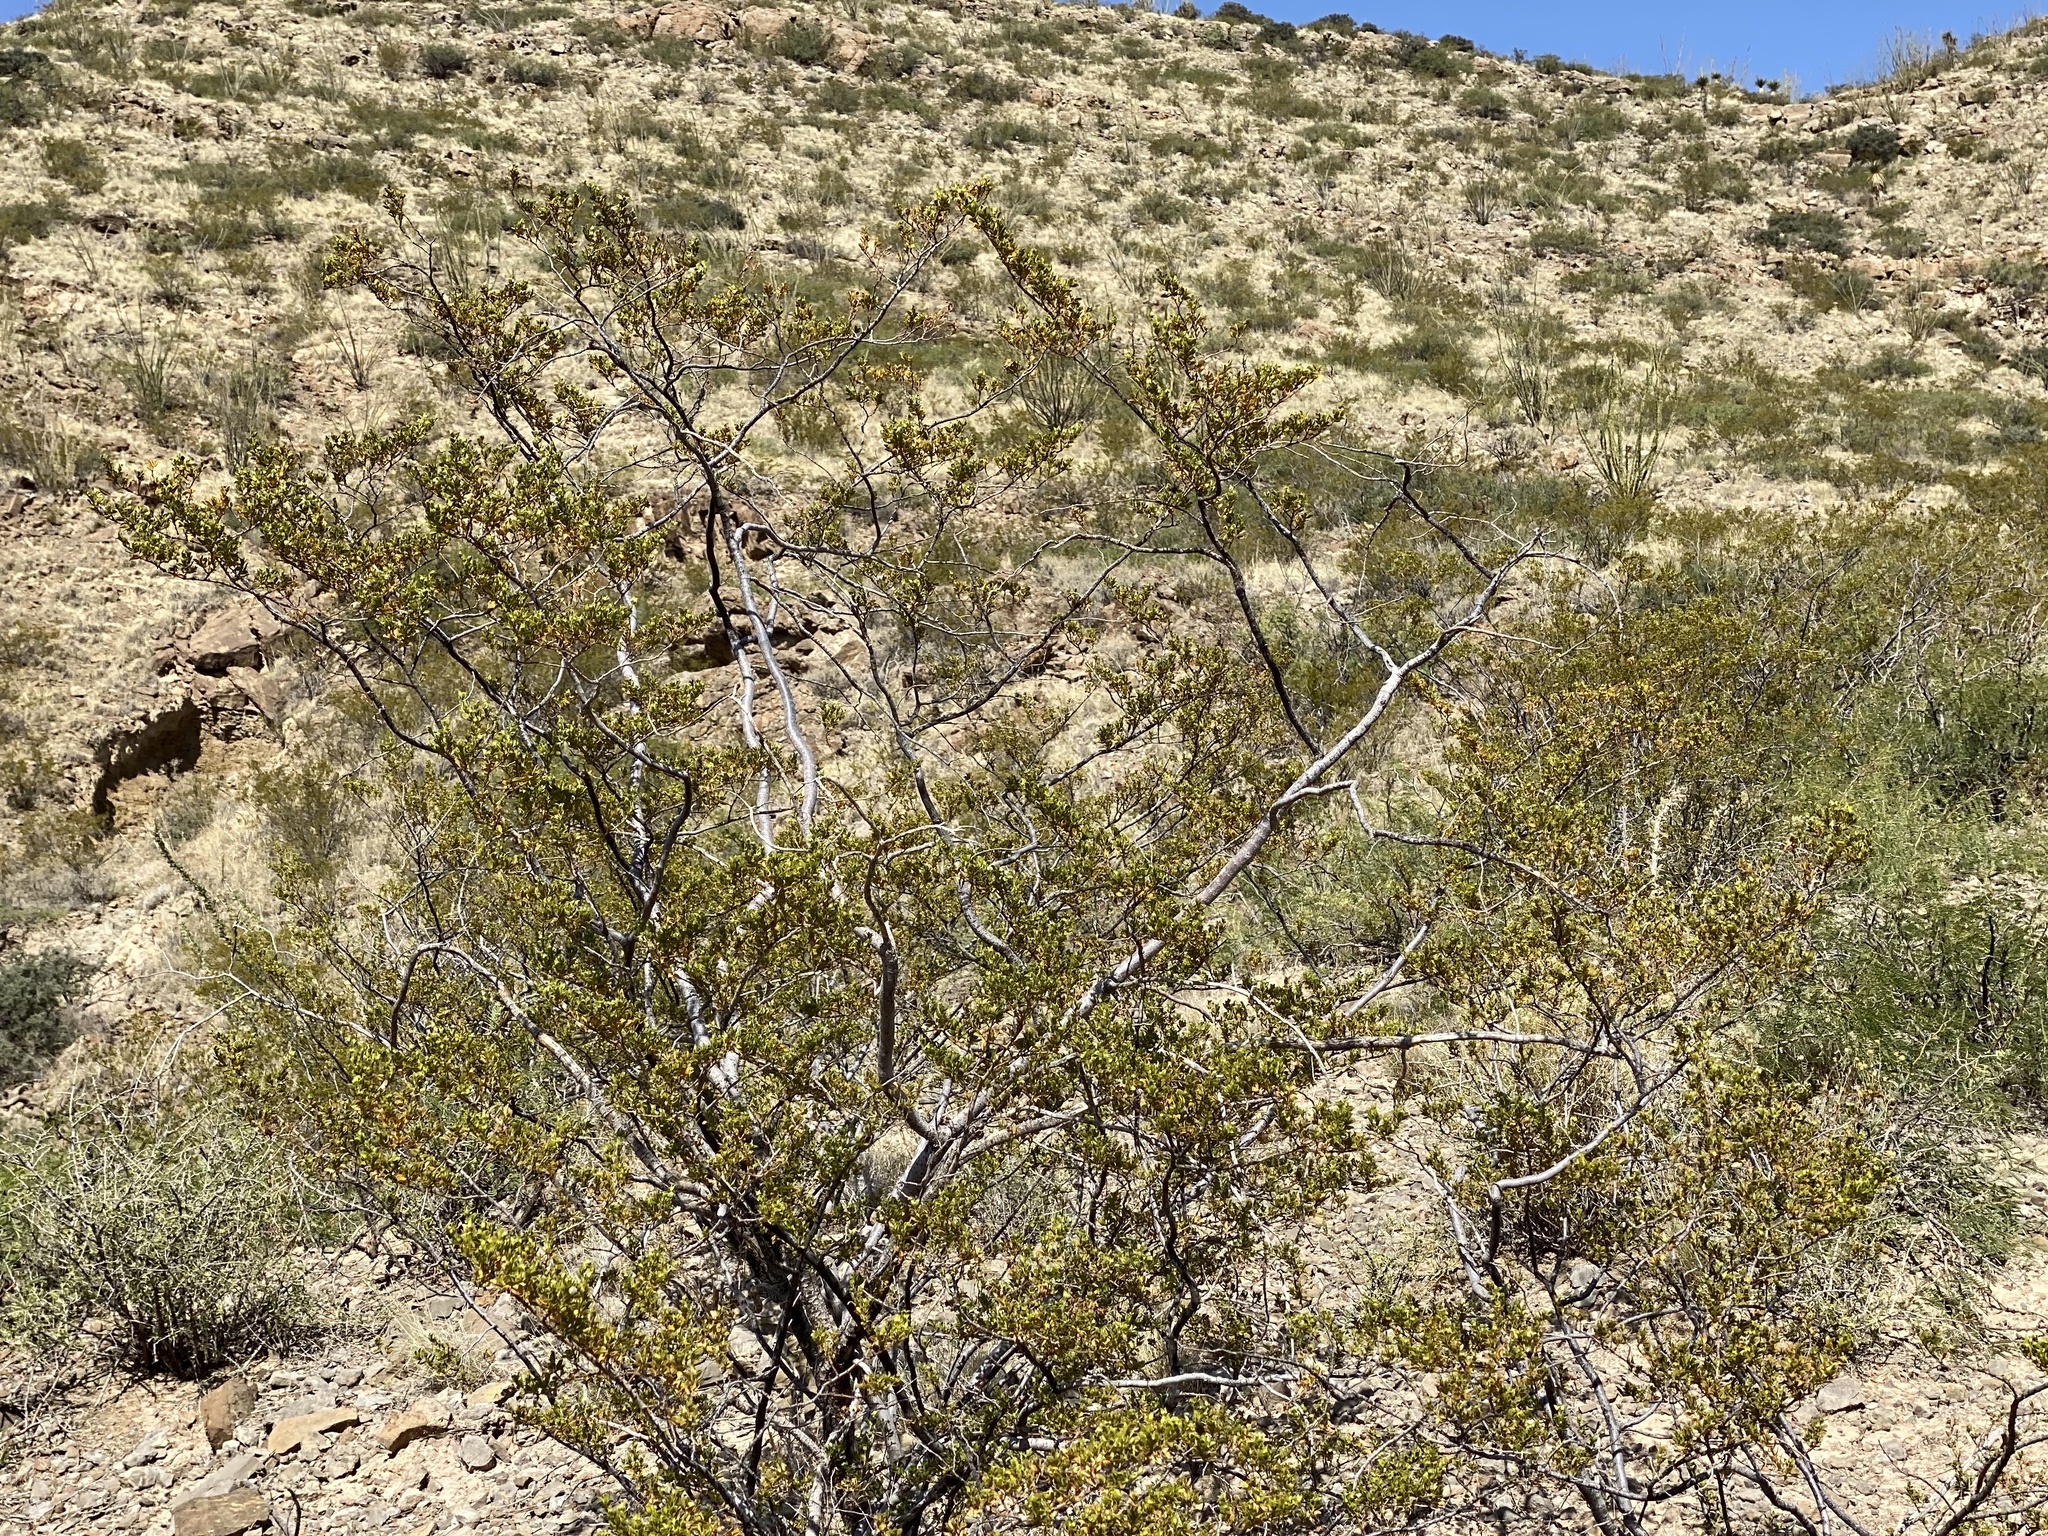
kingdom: Plantae
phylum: Tracheophyta
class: Magnoliopsida
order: Zygophyllales
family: Zygophyllaceae
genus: Larrea
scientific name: Larrea tridentata
